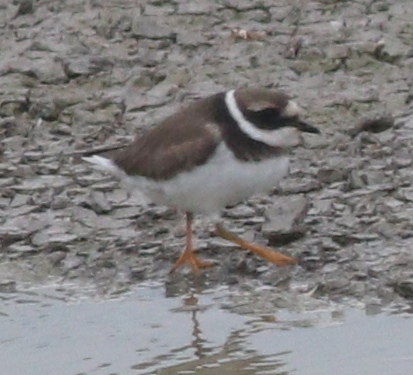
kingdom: Animalia
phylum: Chordata
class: Aves
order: Charadriiformes
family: Charadriidae
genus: Charadrius
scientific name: Charadrius hiaticula
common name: Common ringed plover
